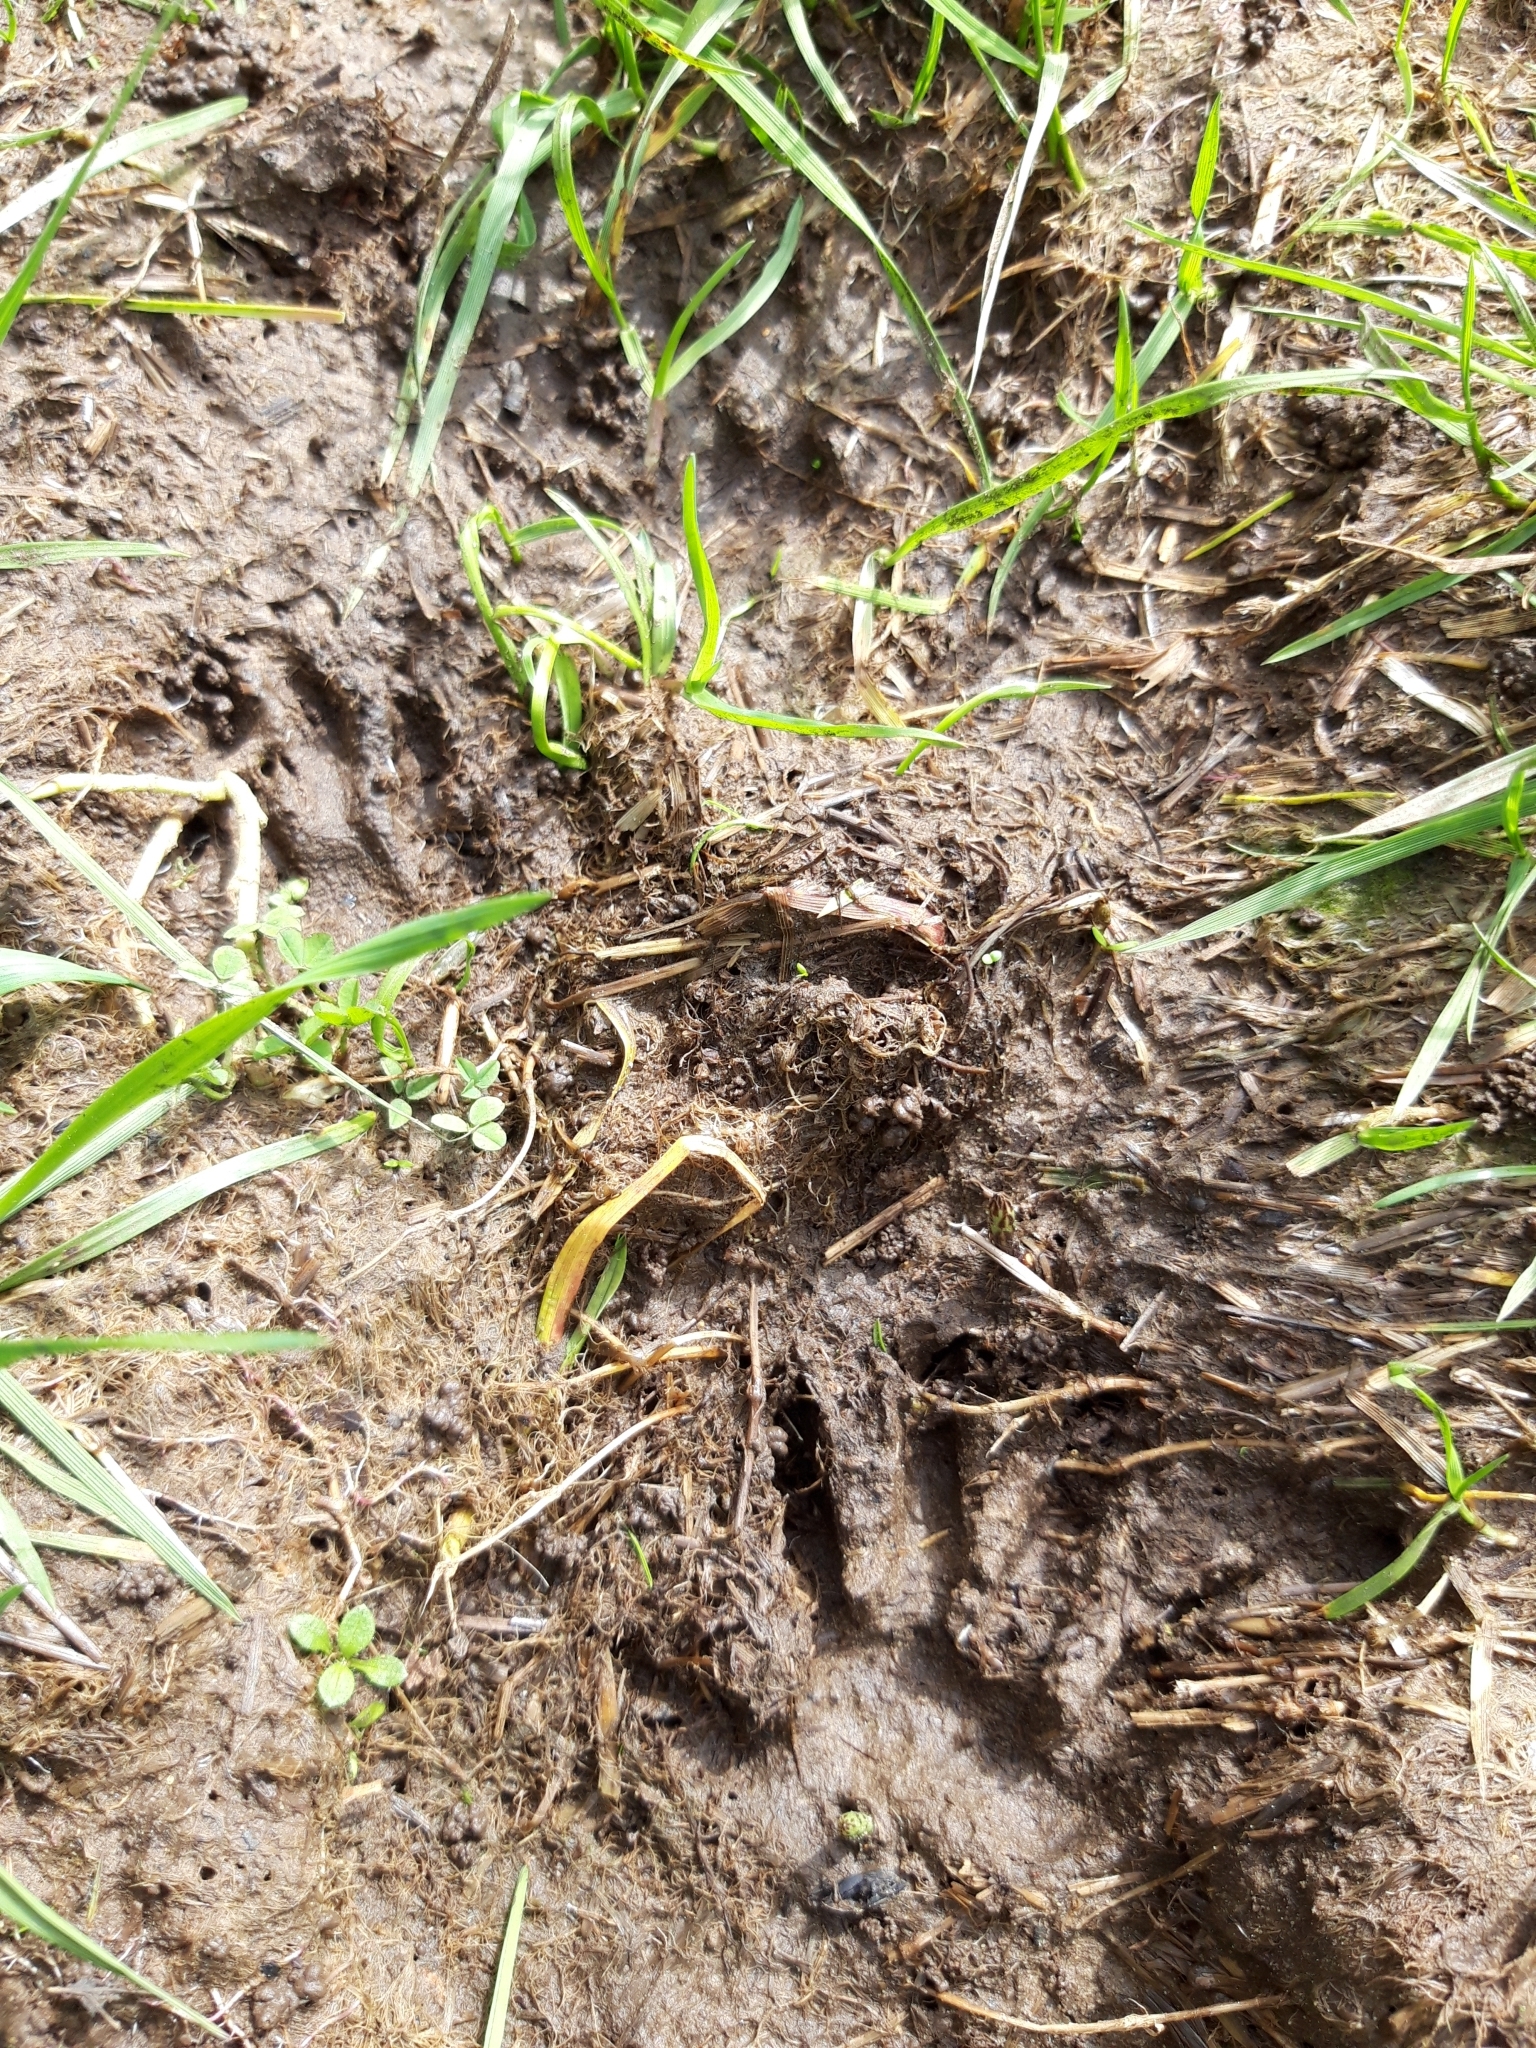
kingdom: Animalia
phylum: Chordata
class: Mammalia
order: Carnivora
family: Procyonidae
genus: Procyon
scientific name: Procyon lotor
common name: Raccoon
